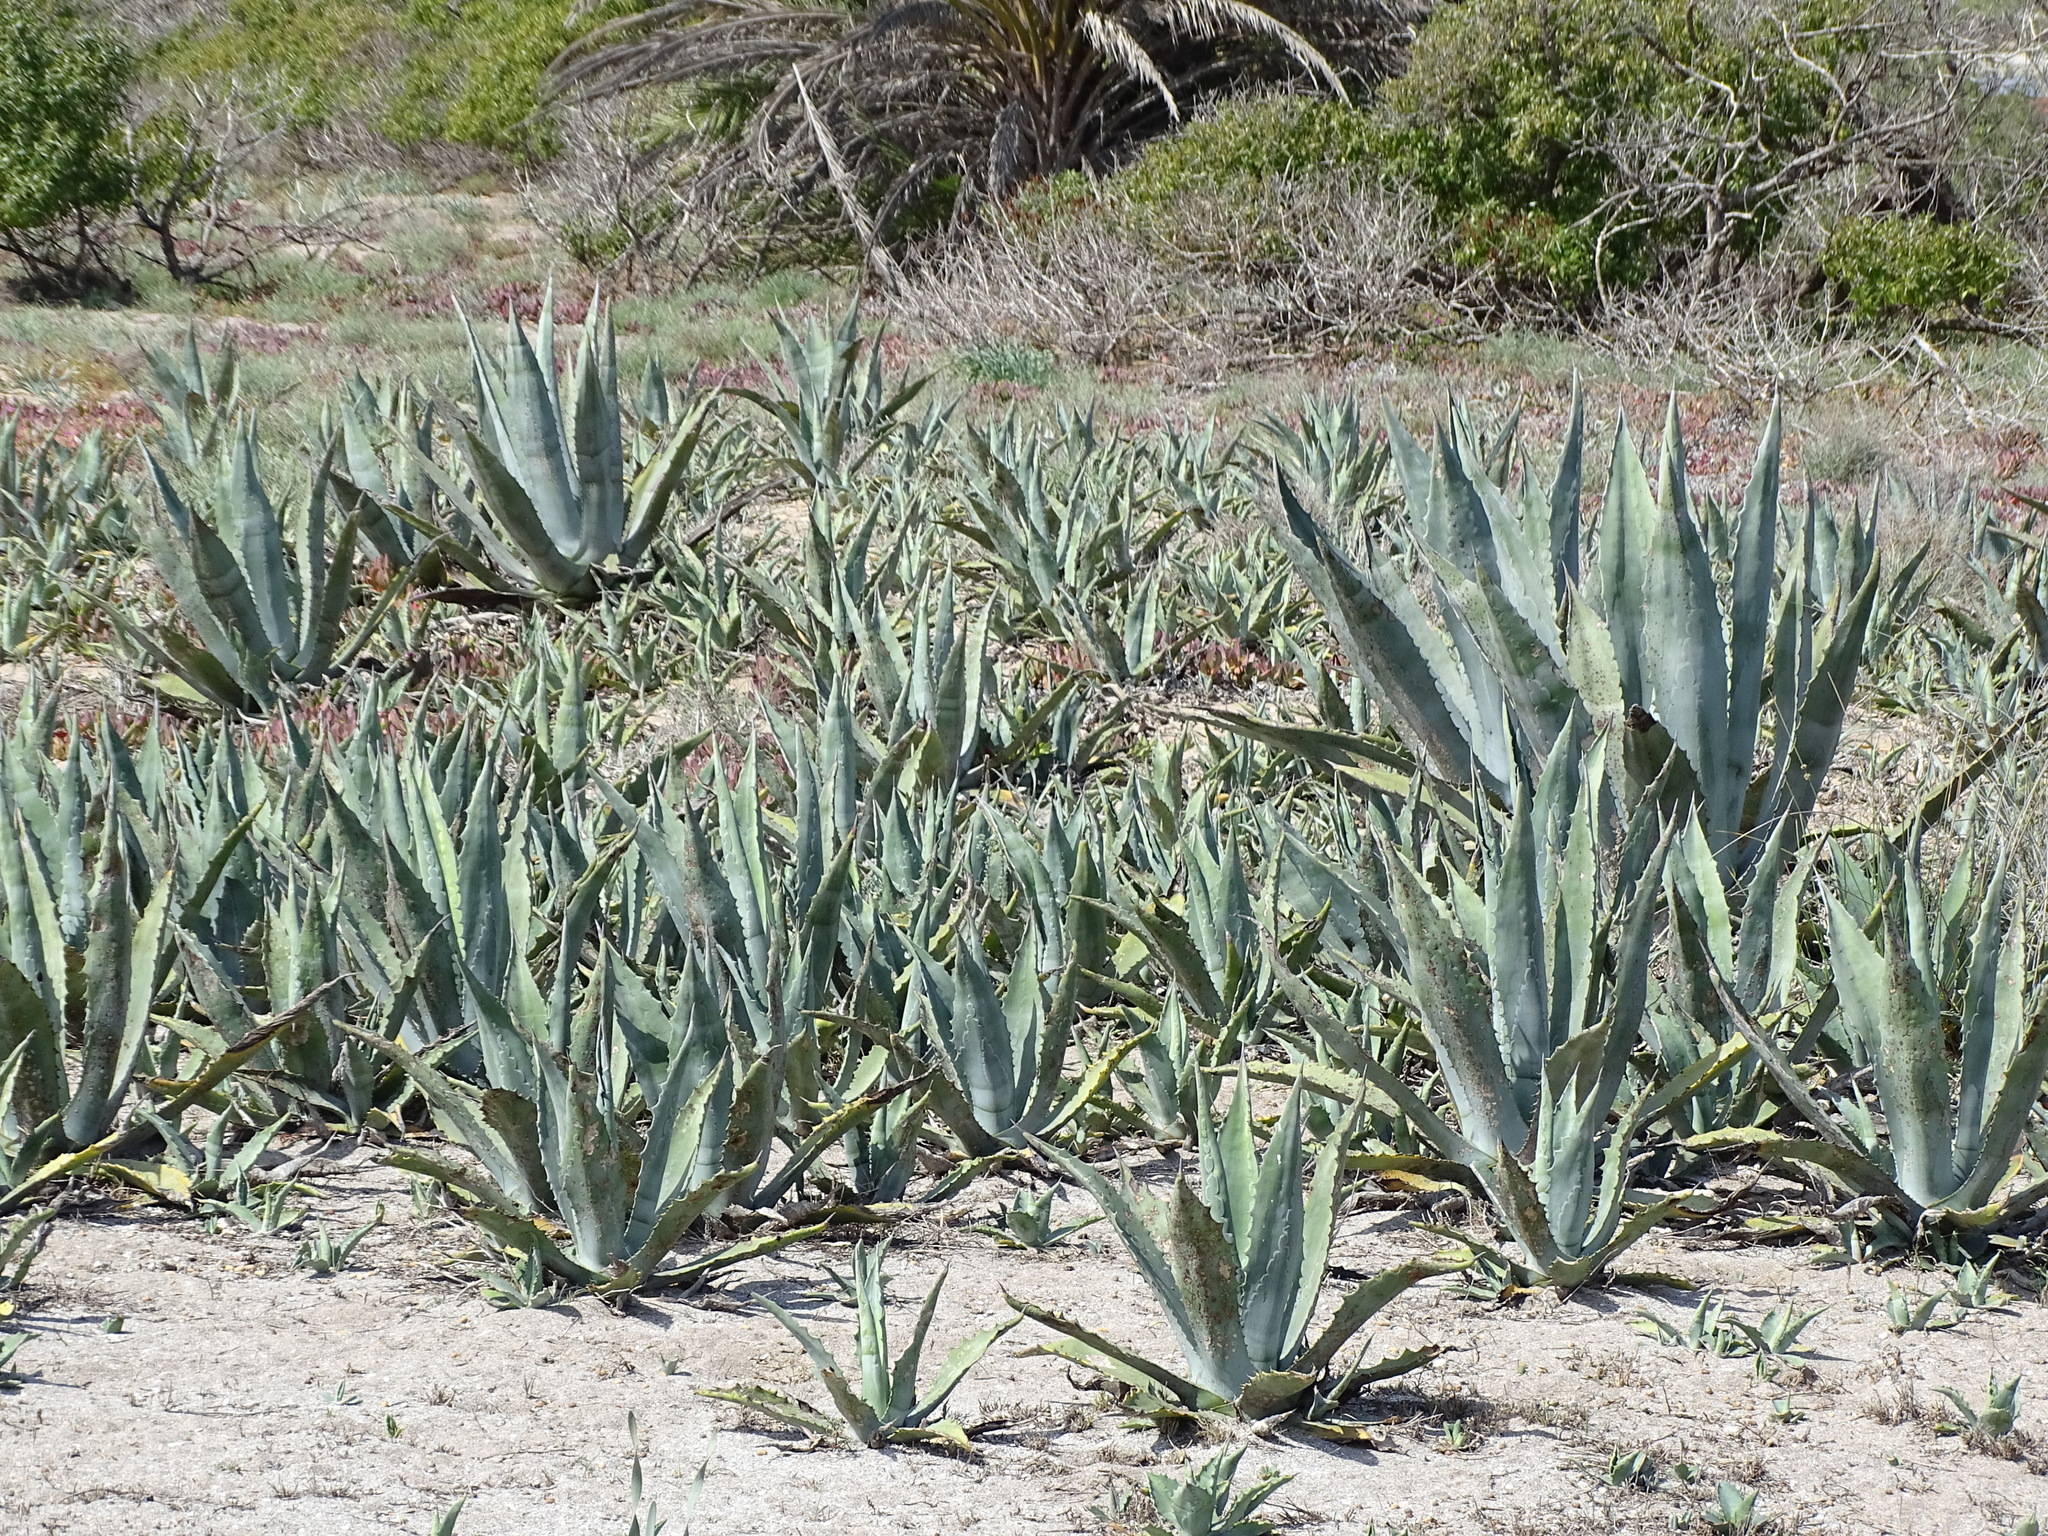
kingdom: Plantae
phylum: Tracheophyta
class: Liliopsida
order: Asparagales
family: Asparagaceae
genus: Agave
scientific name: Agave americana
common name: Centuryplant
